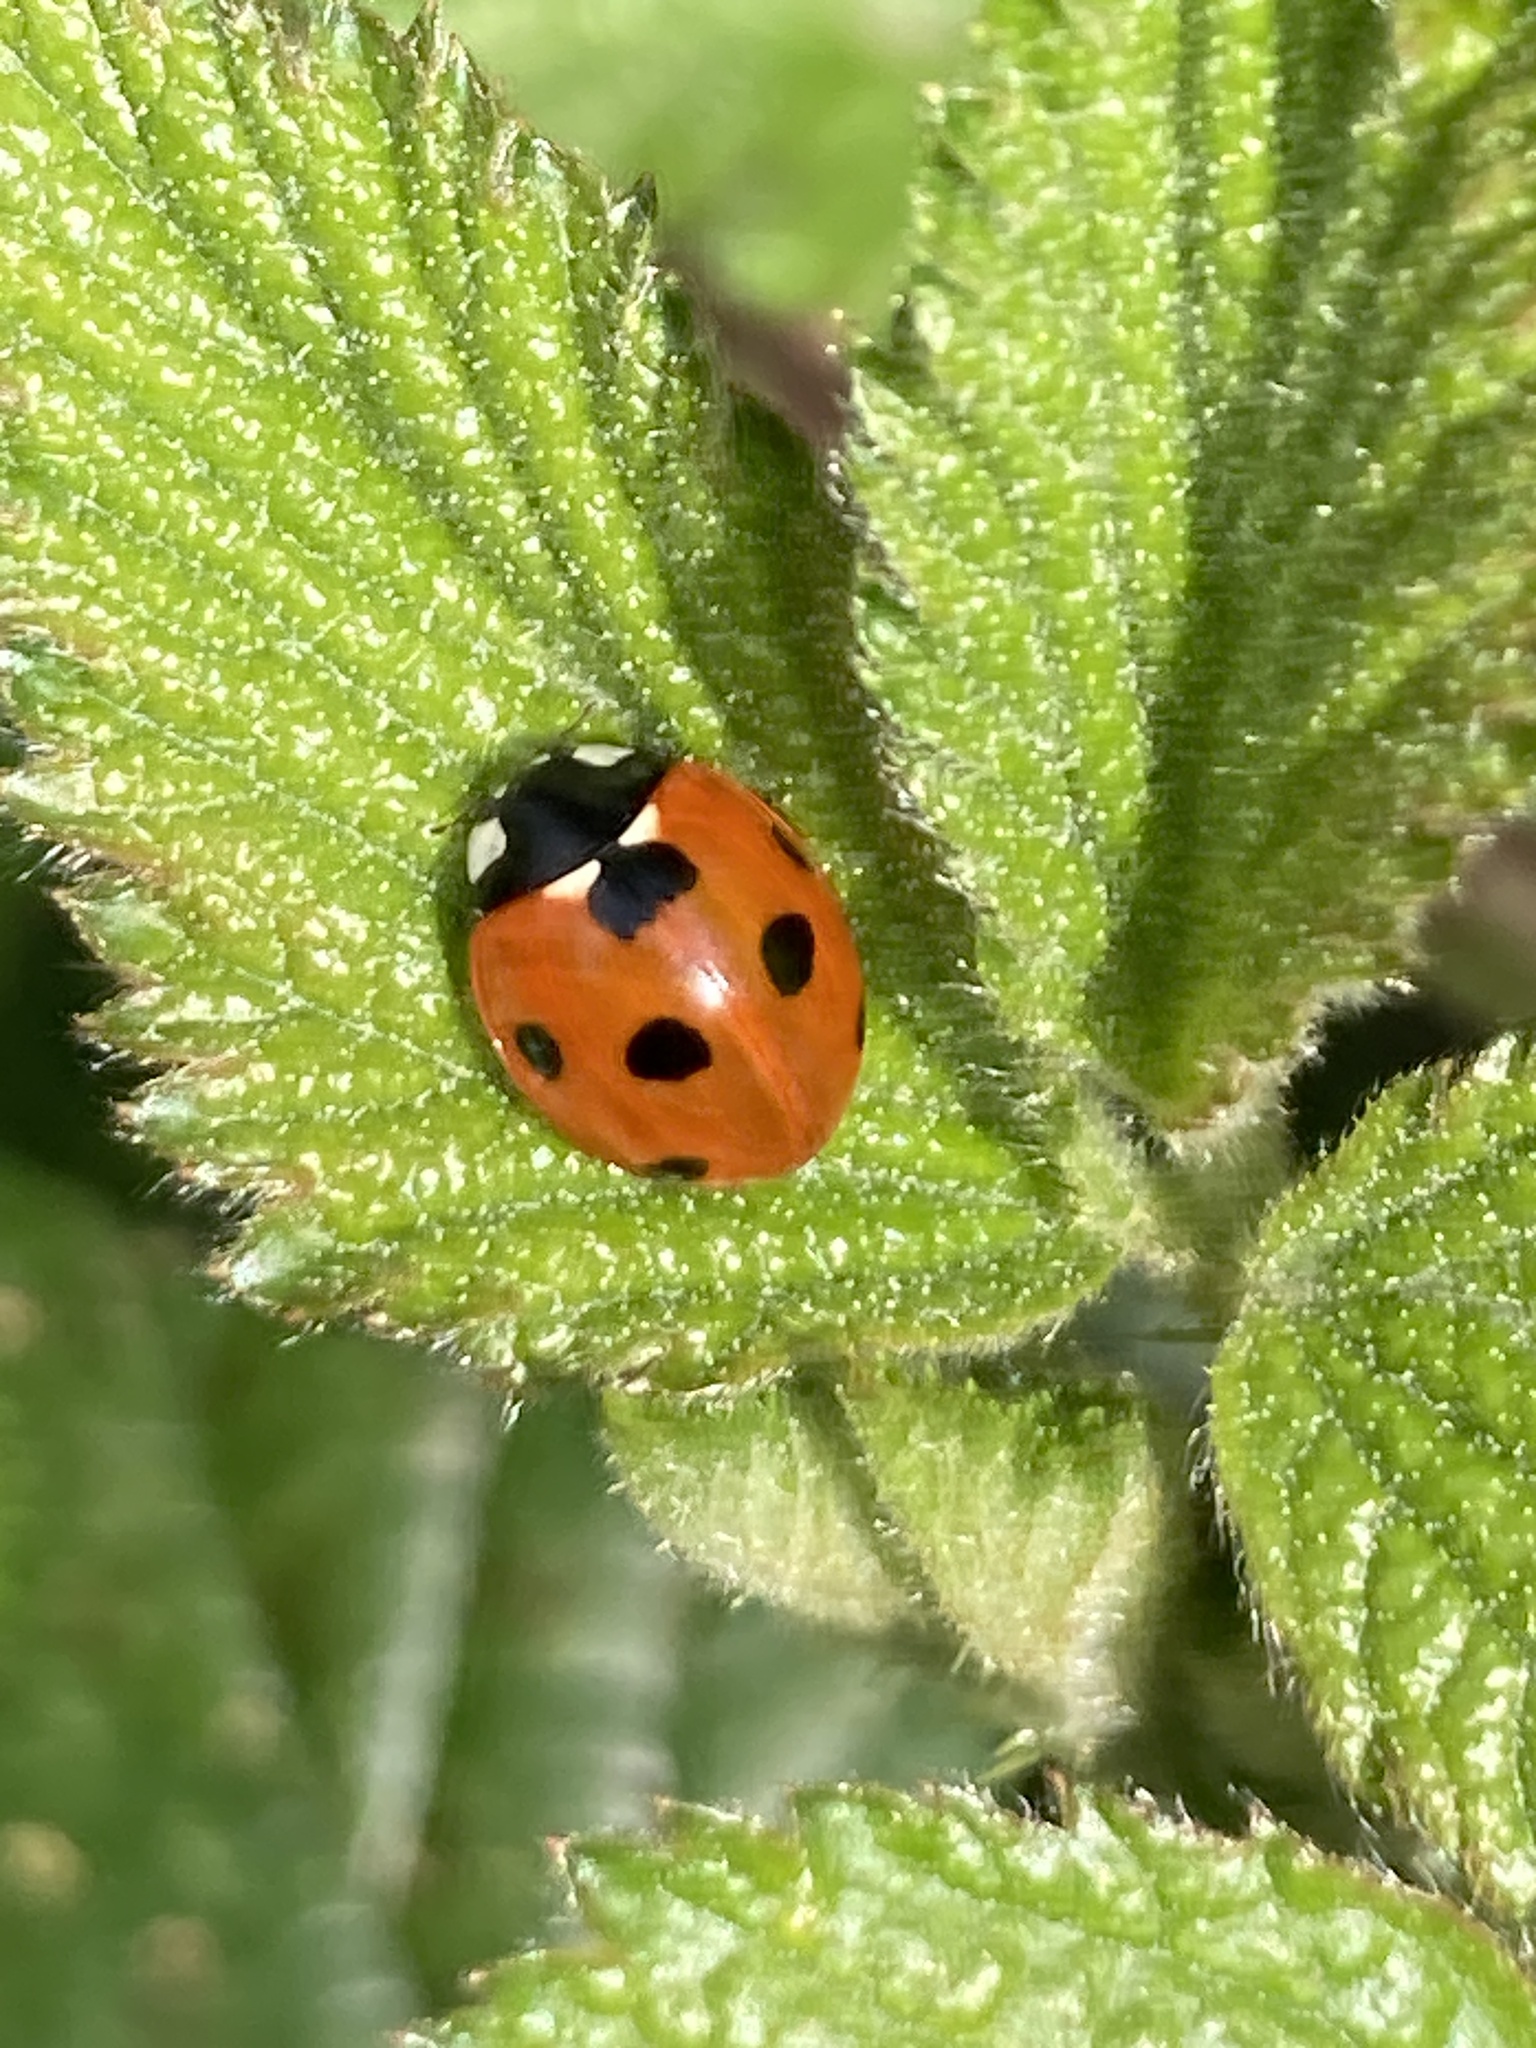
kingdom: Animalia
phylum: Arthropoda
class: Insecta
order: Coleoptera
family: Coccinellidae
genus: Coccinella
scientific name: Coccinella septempunctata
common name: Sevenspotted lady beetle
